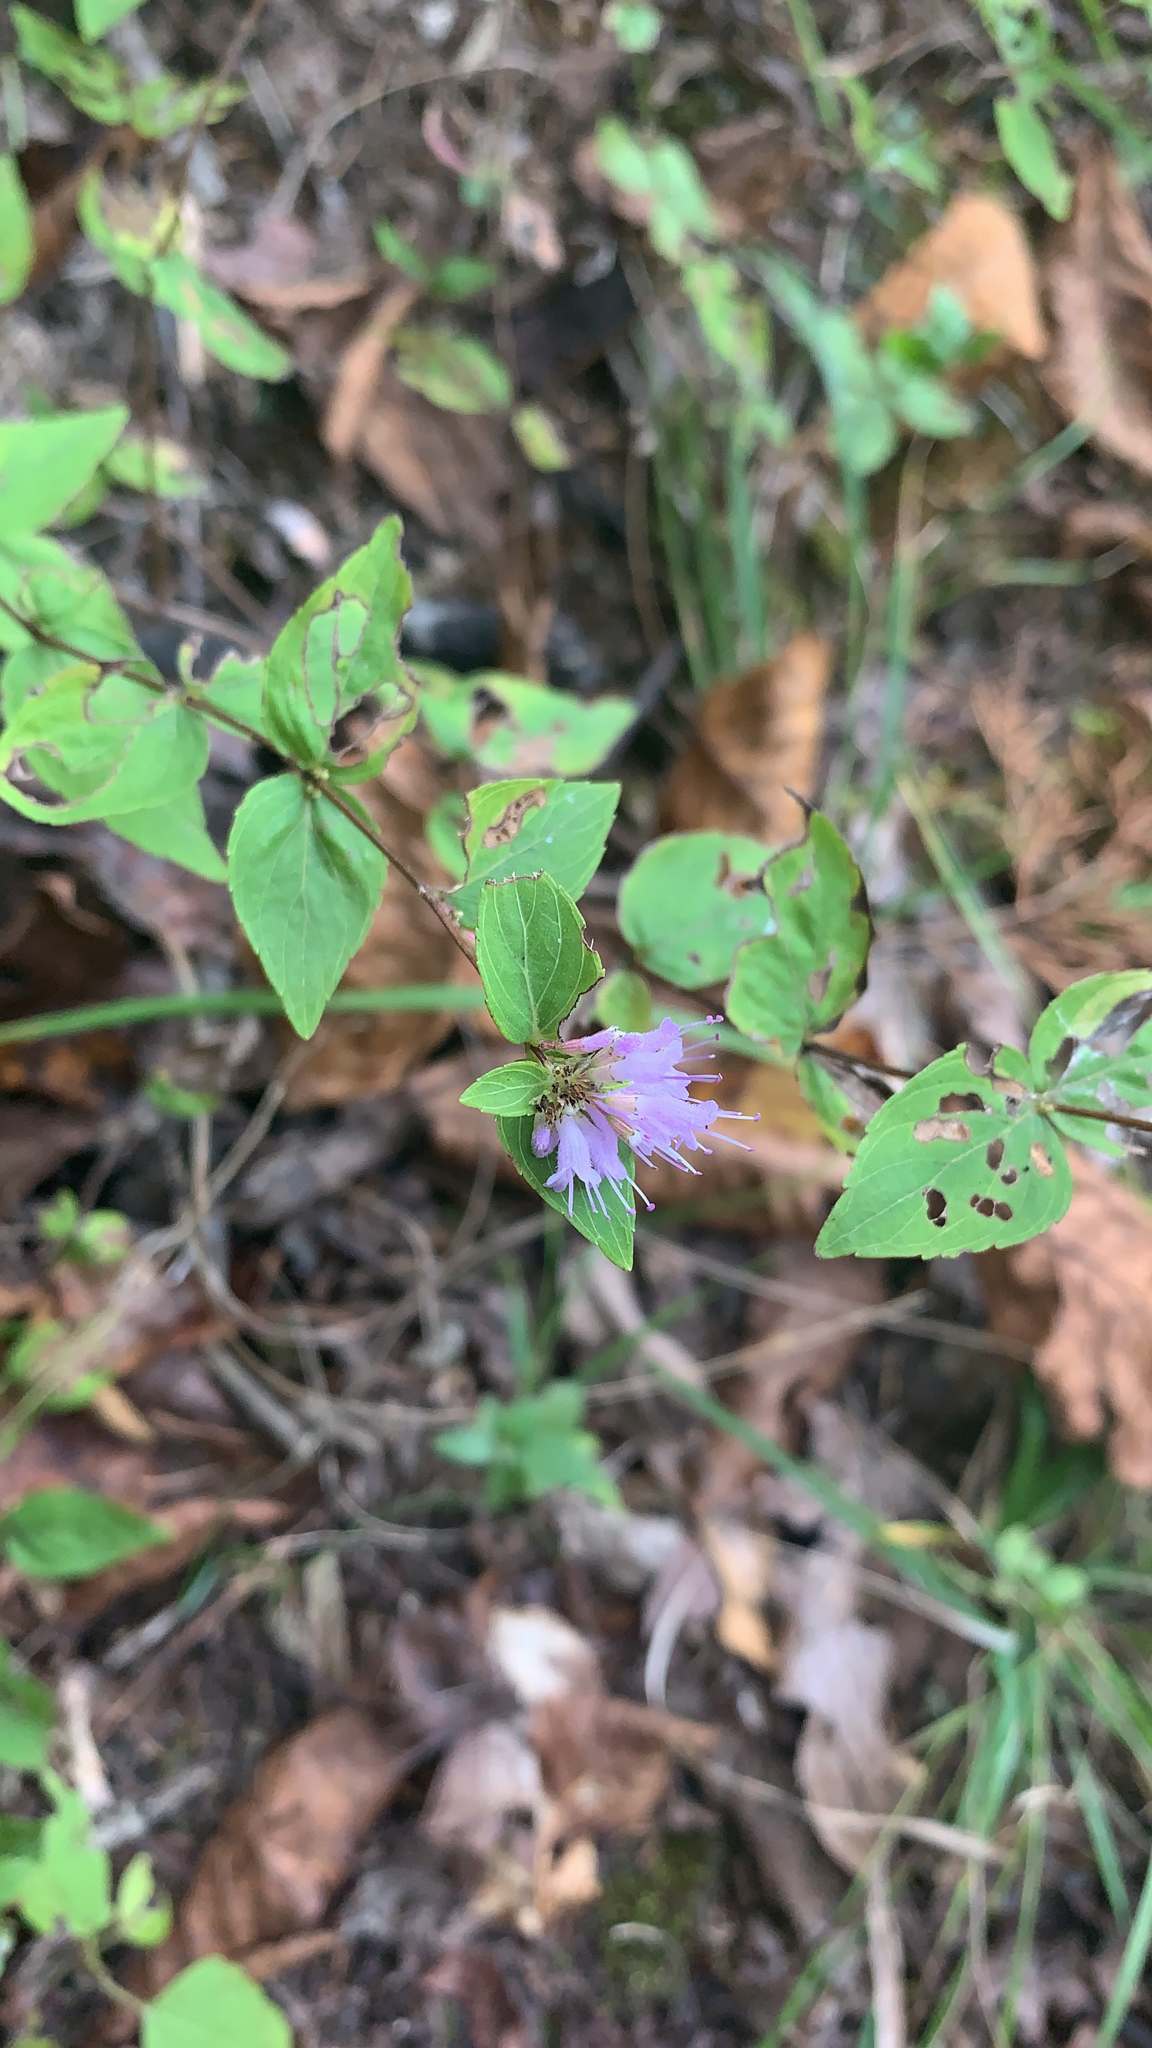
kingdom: Plantae
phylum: Tracheophyta
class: Magnoliopsida
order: Lamiales
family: Lamiaceae
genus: Cunila
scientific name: Cunila origanoides
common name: American dittany
